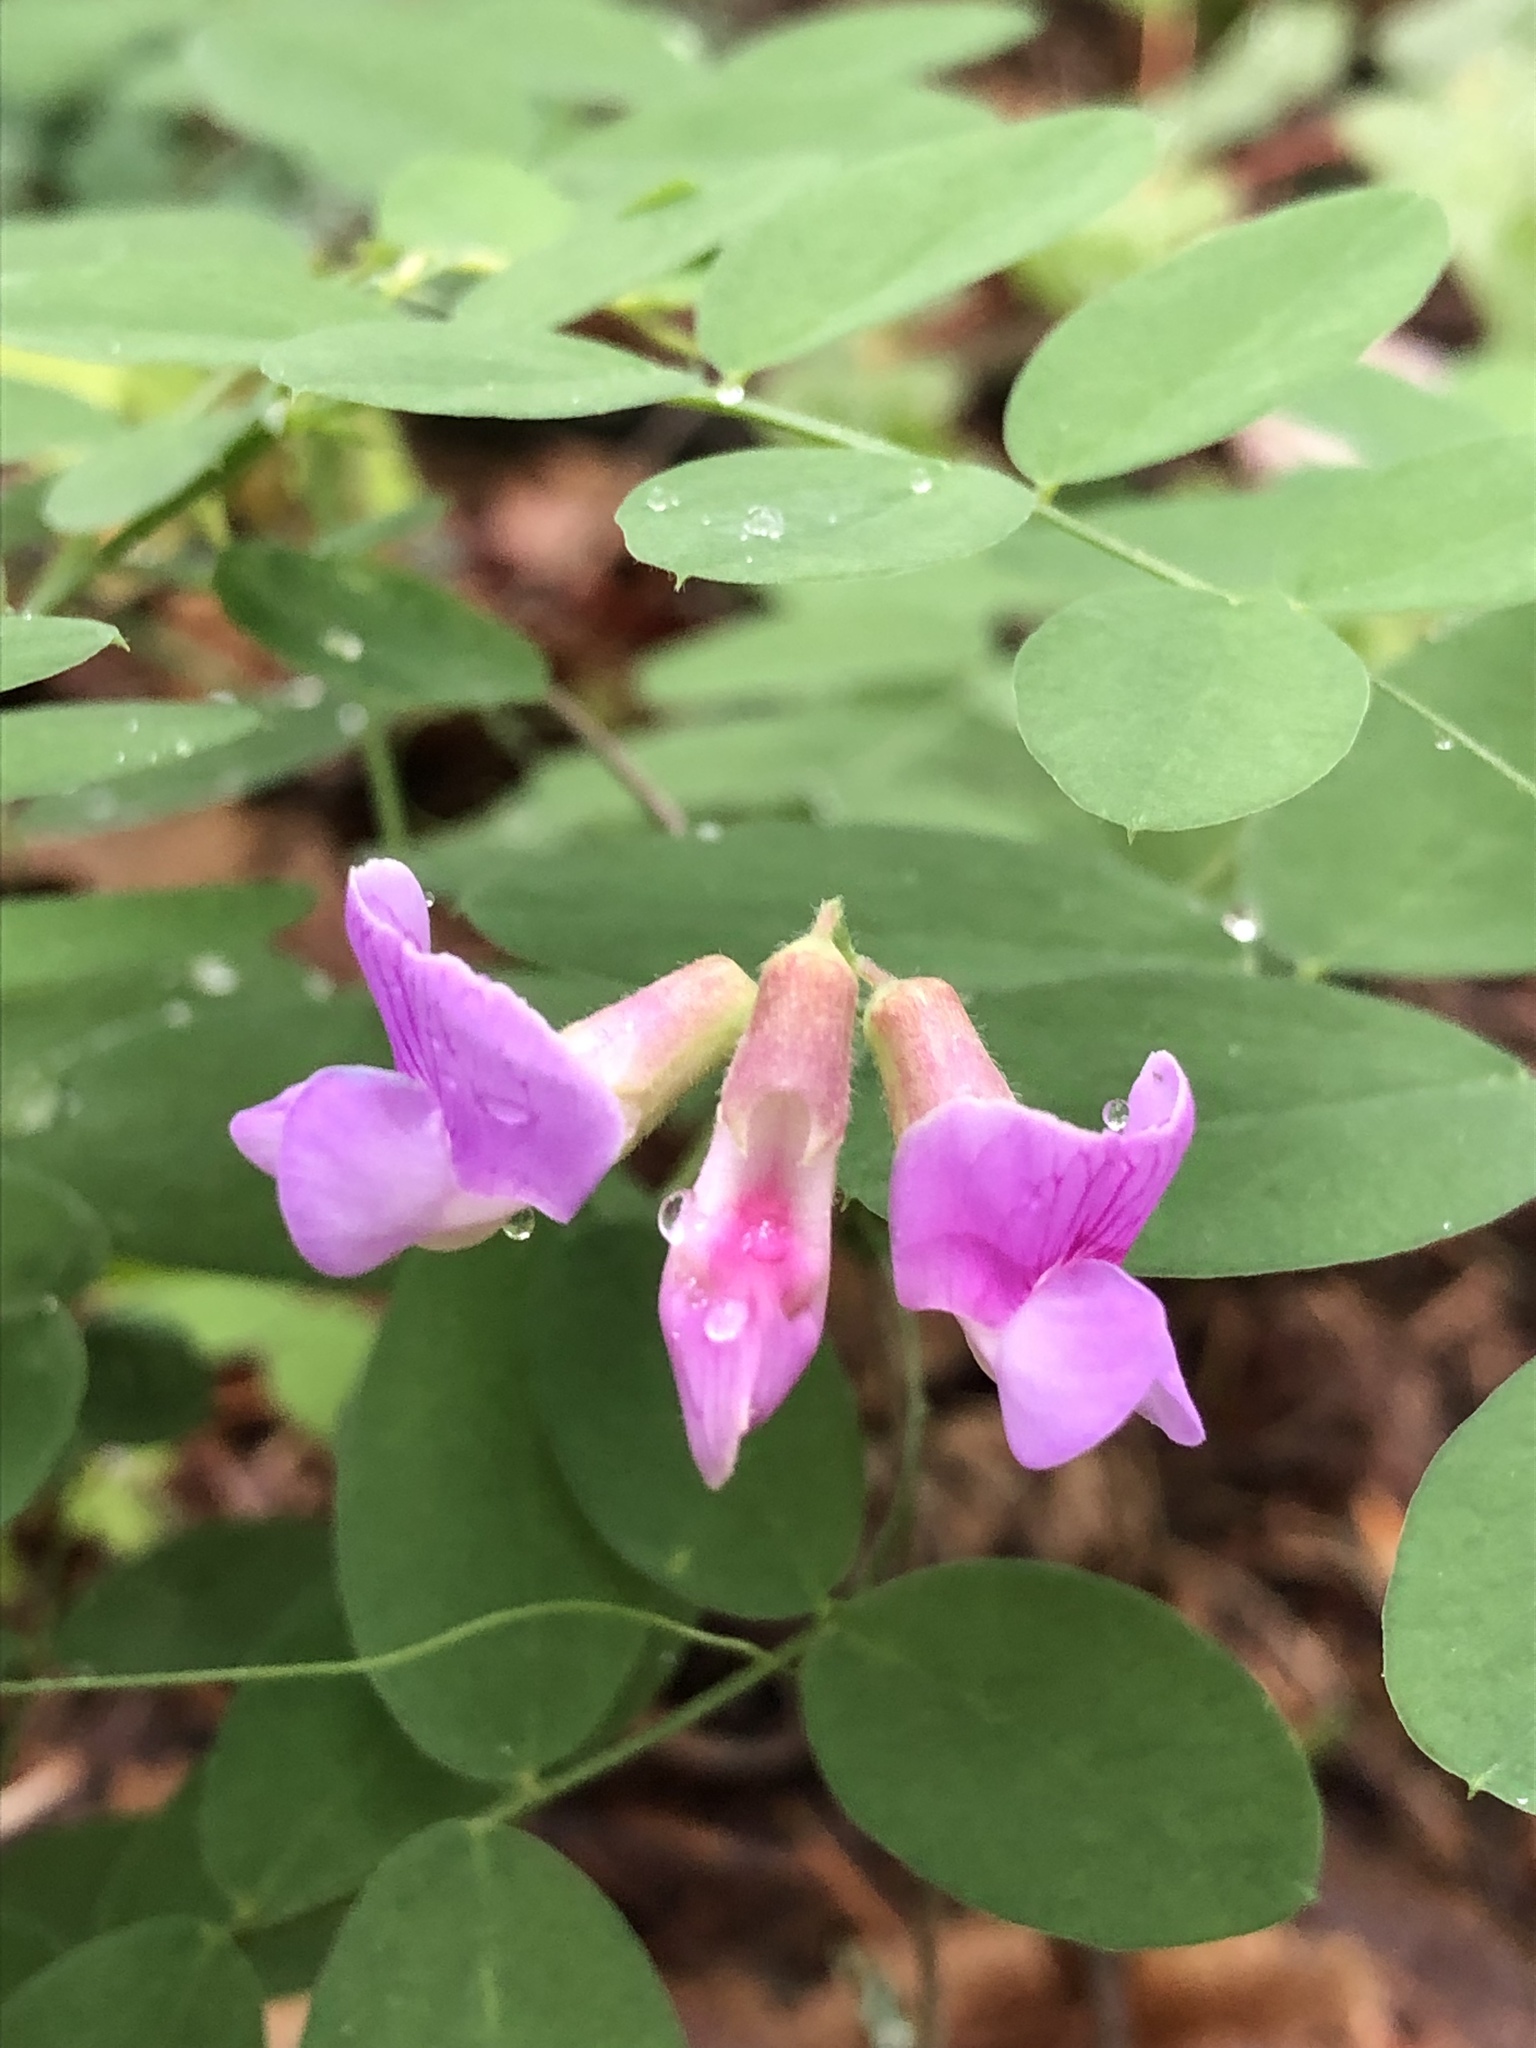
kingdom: Plantae
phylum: Tracheophyta
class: Magnoliopsida
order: Fabales
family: Fabaceae
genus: Lathyrus
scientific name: Lathyrus nevadensis
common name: Sierra nevada peavine
